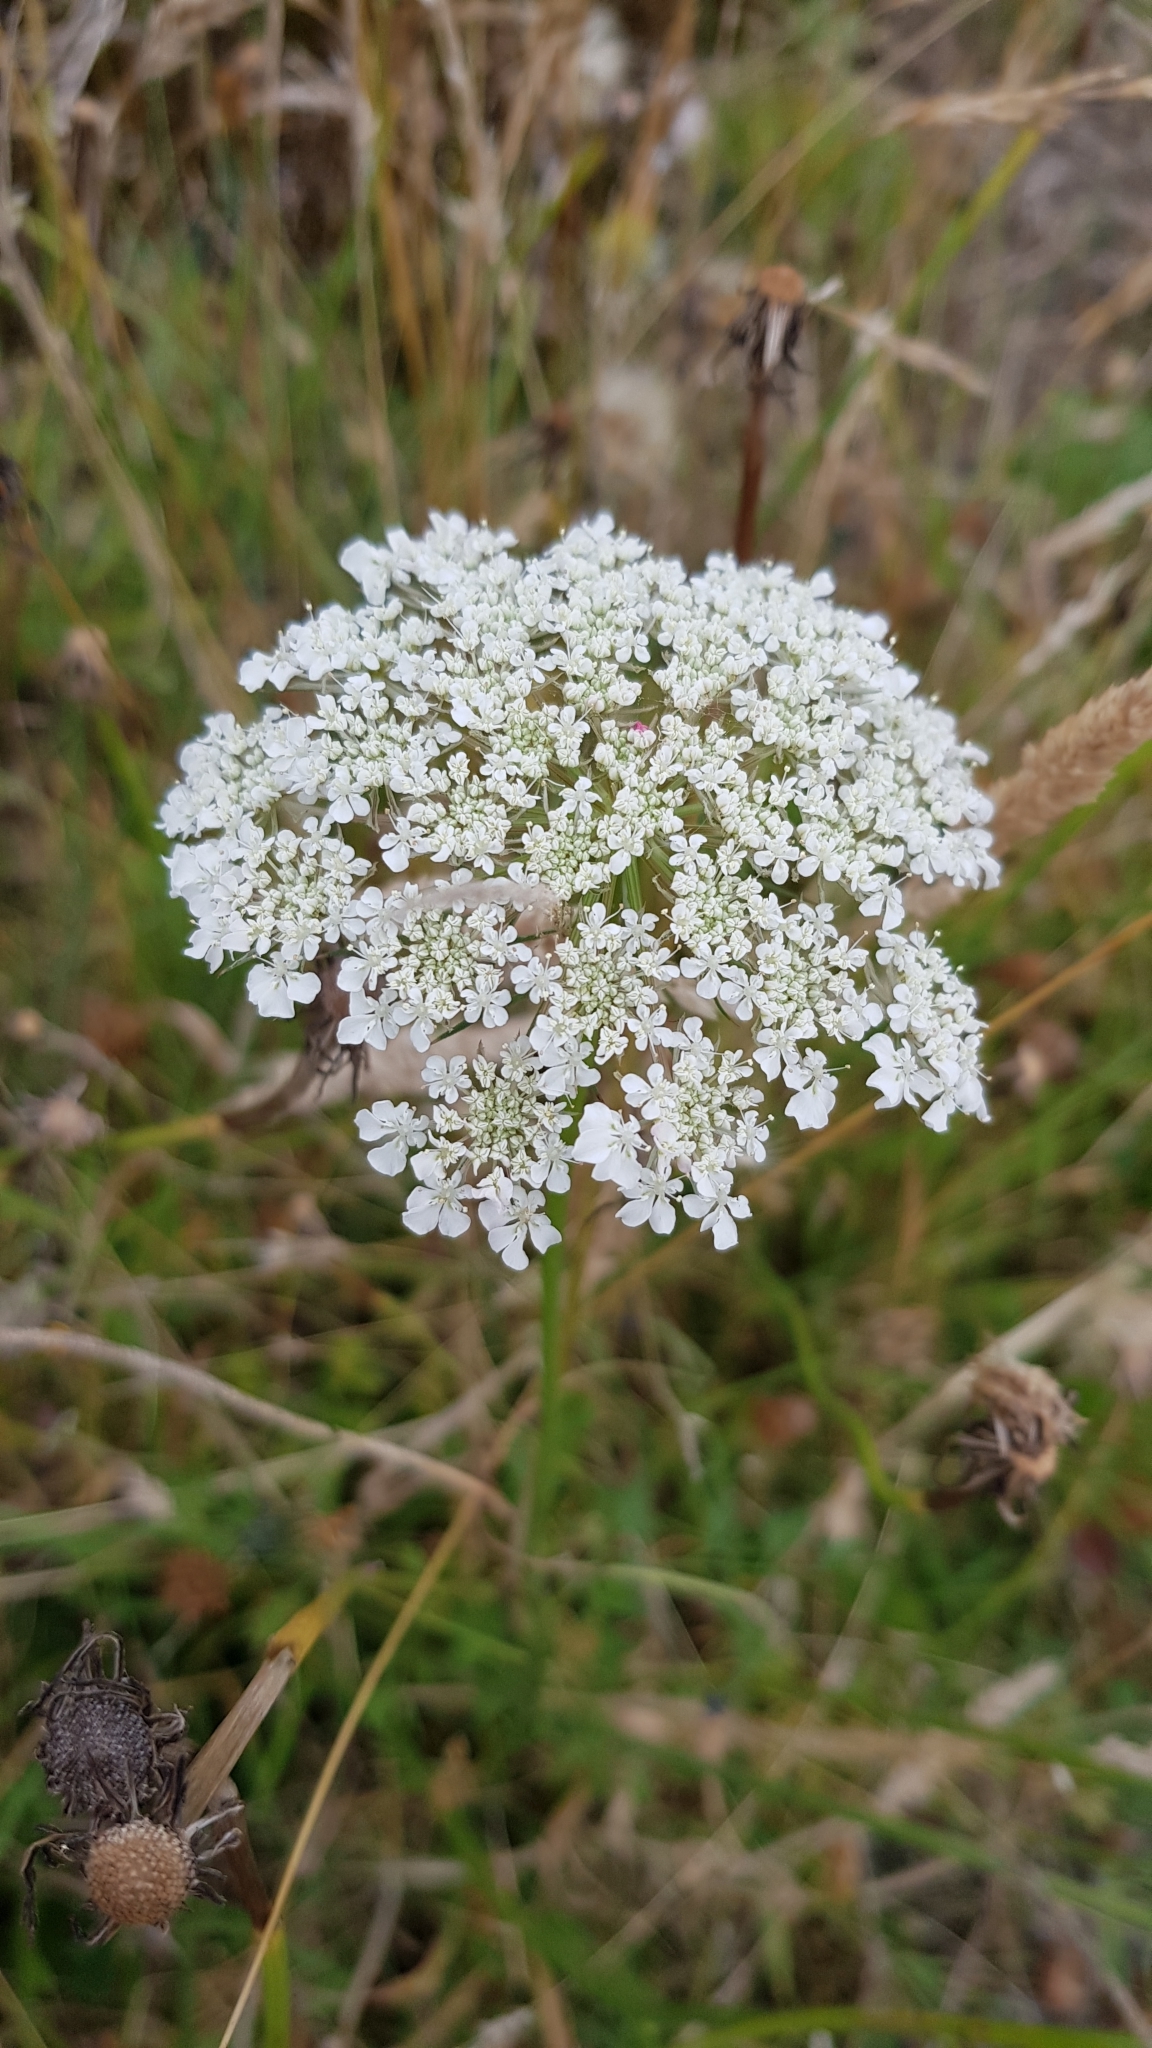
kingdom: Plantae
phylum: Tracheophyta
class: Magnoliopsida
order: Apiales
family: Apiaceae
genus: Daucus
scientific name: Daucus carota
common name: Wild carrot
